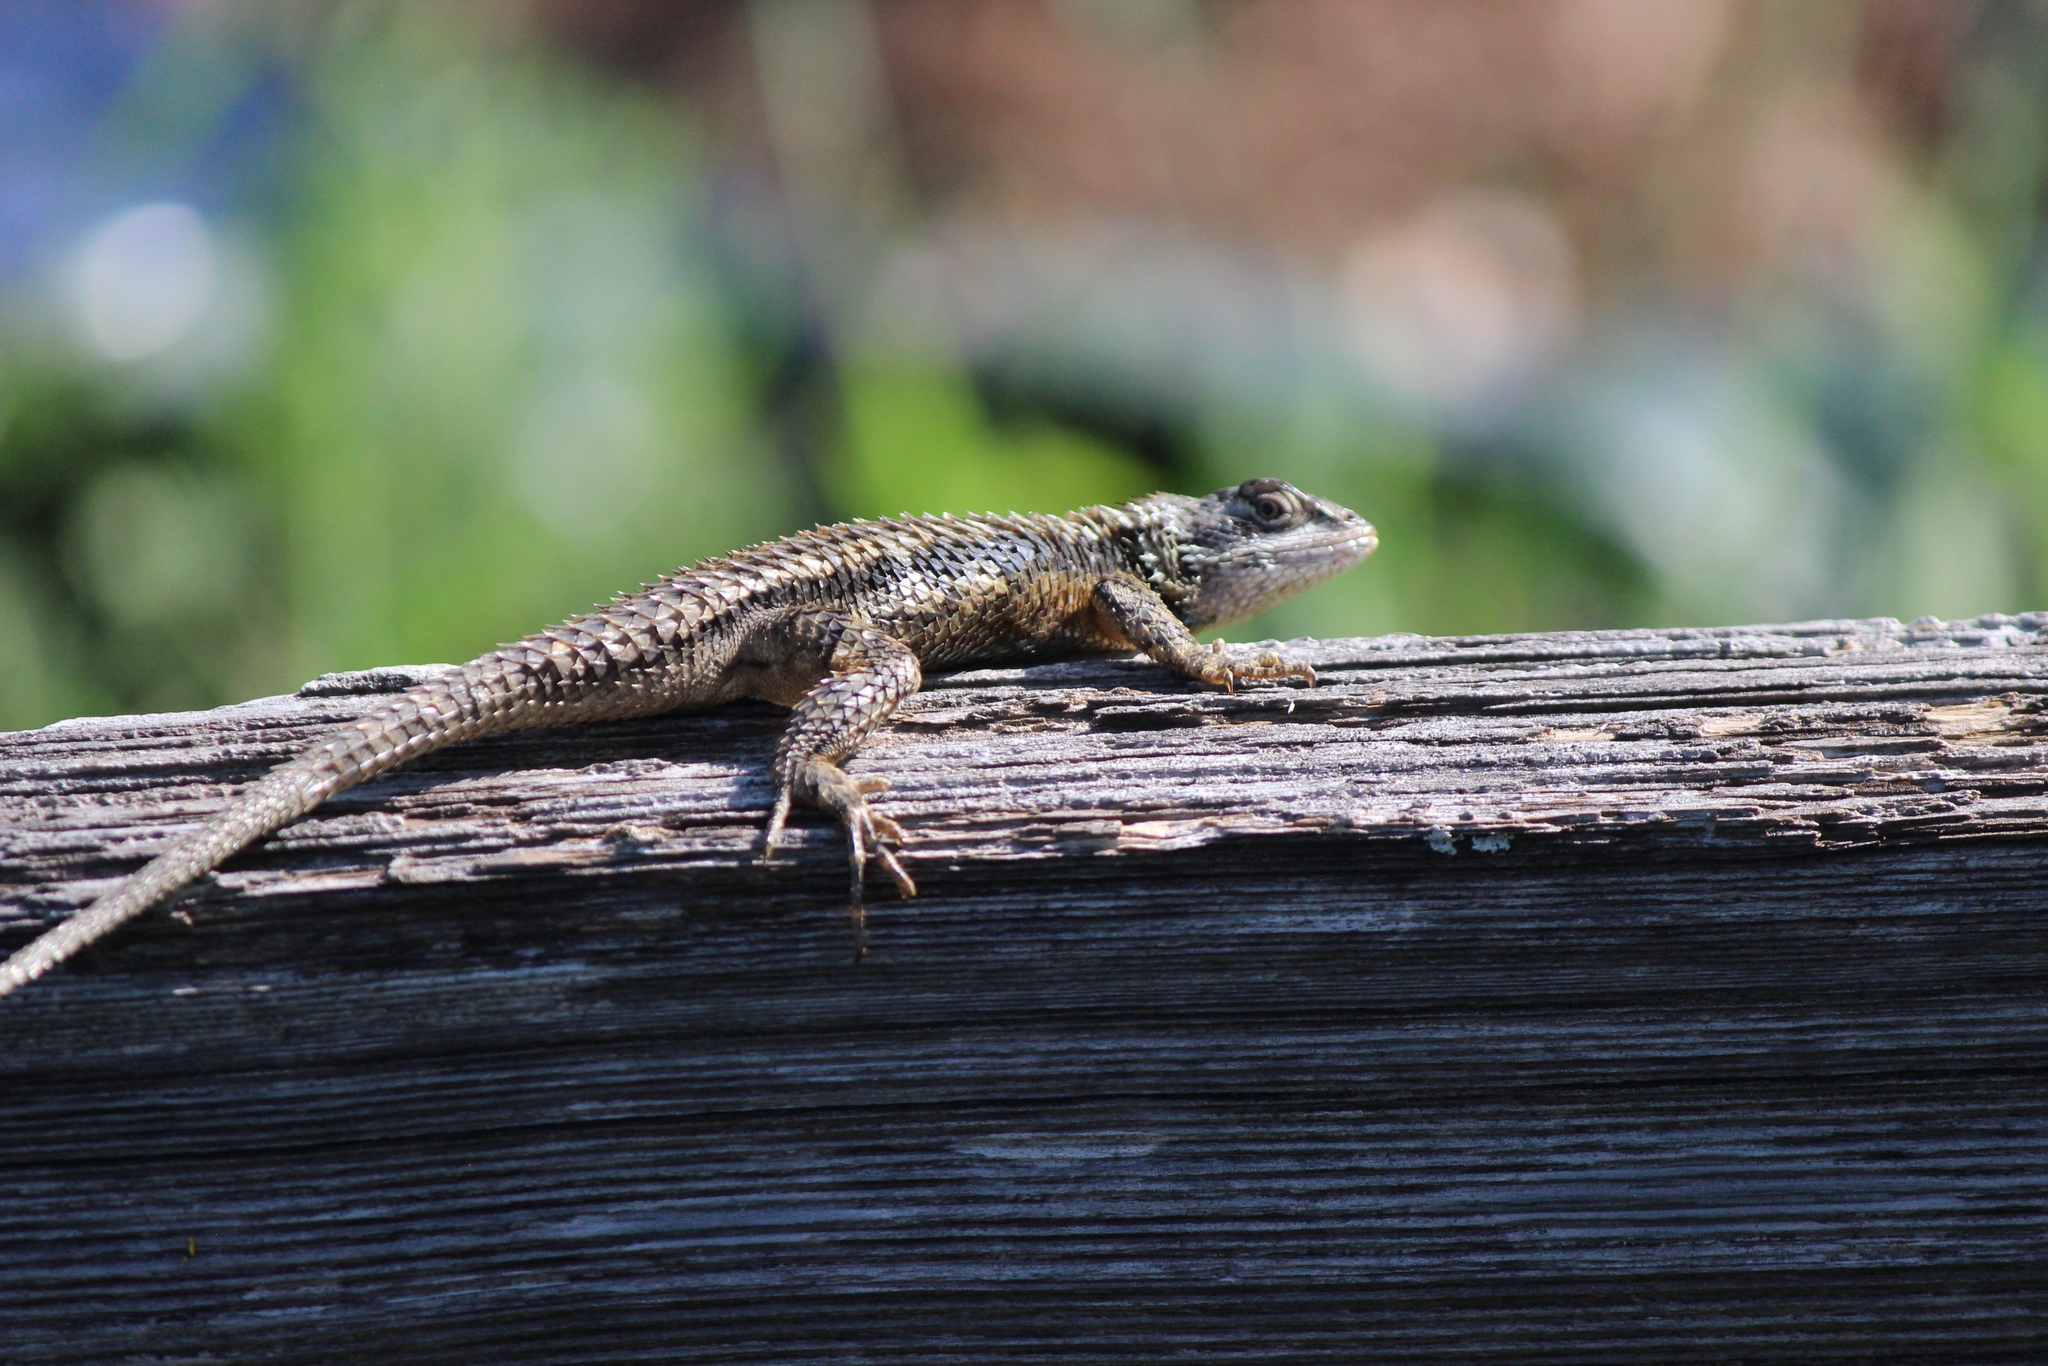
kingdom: Animalia
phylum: Chordata
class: Squamata
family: Phrynosomatidae
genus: Sceloporus
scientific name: Sceloporus olivaceus
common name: Texas spiny lizard
